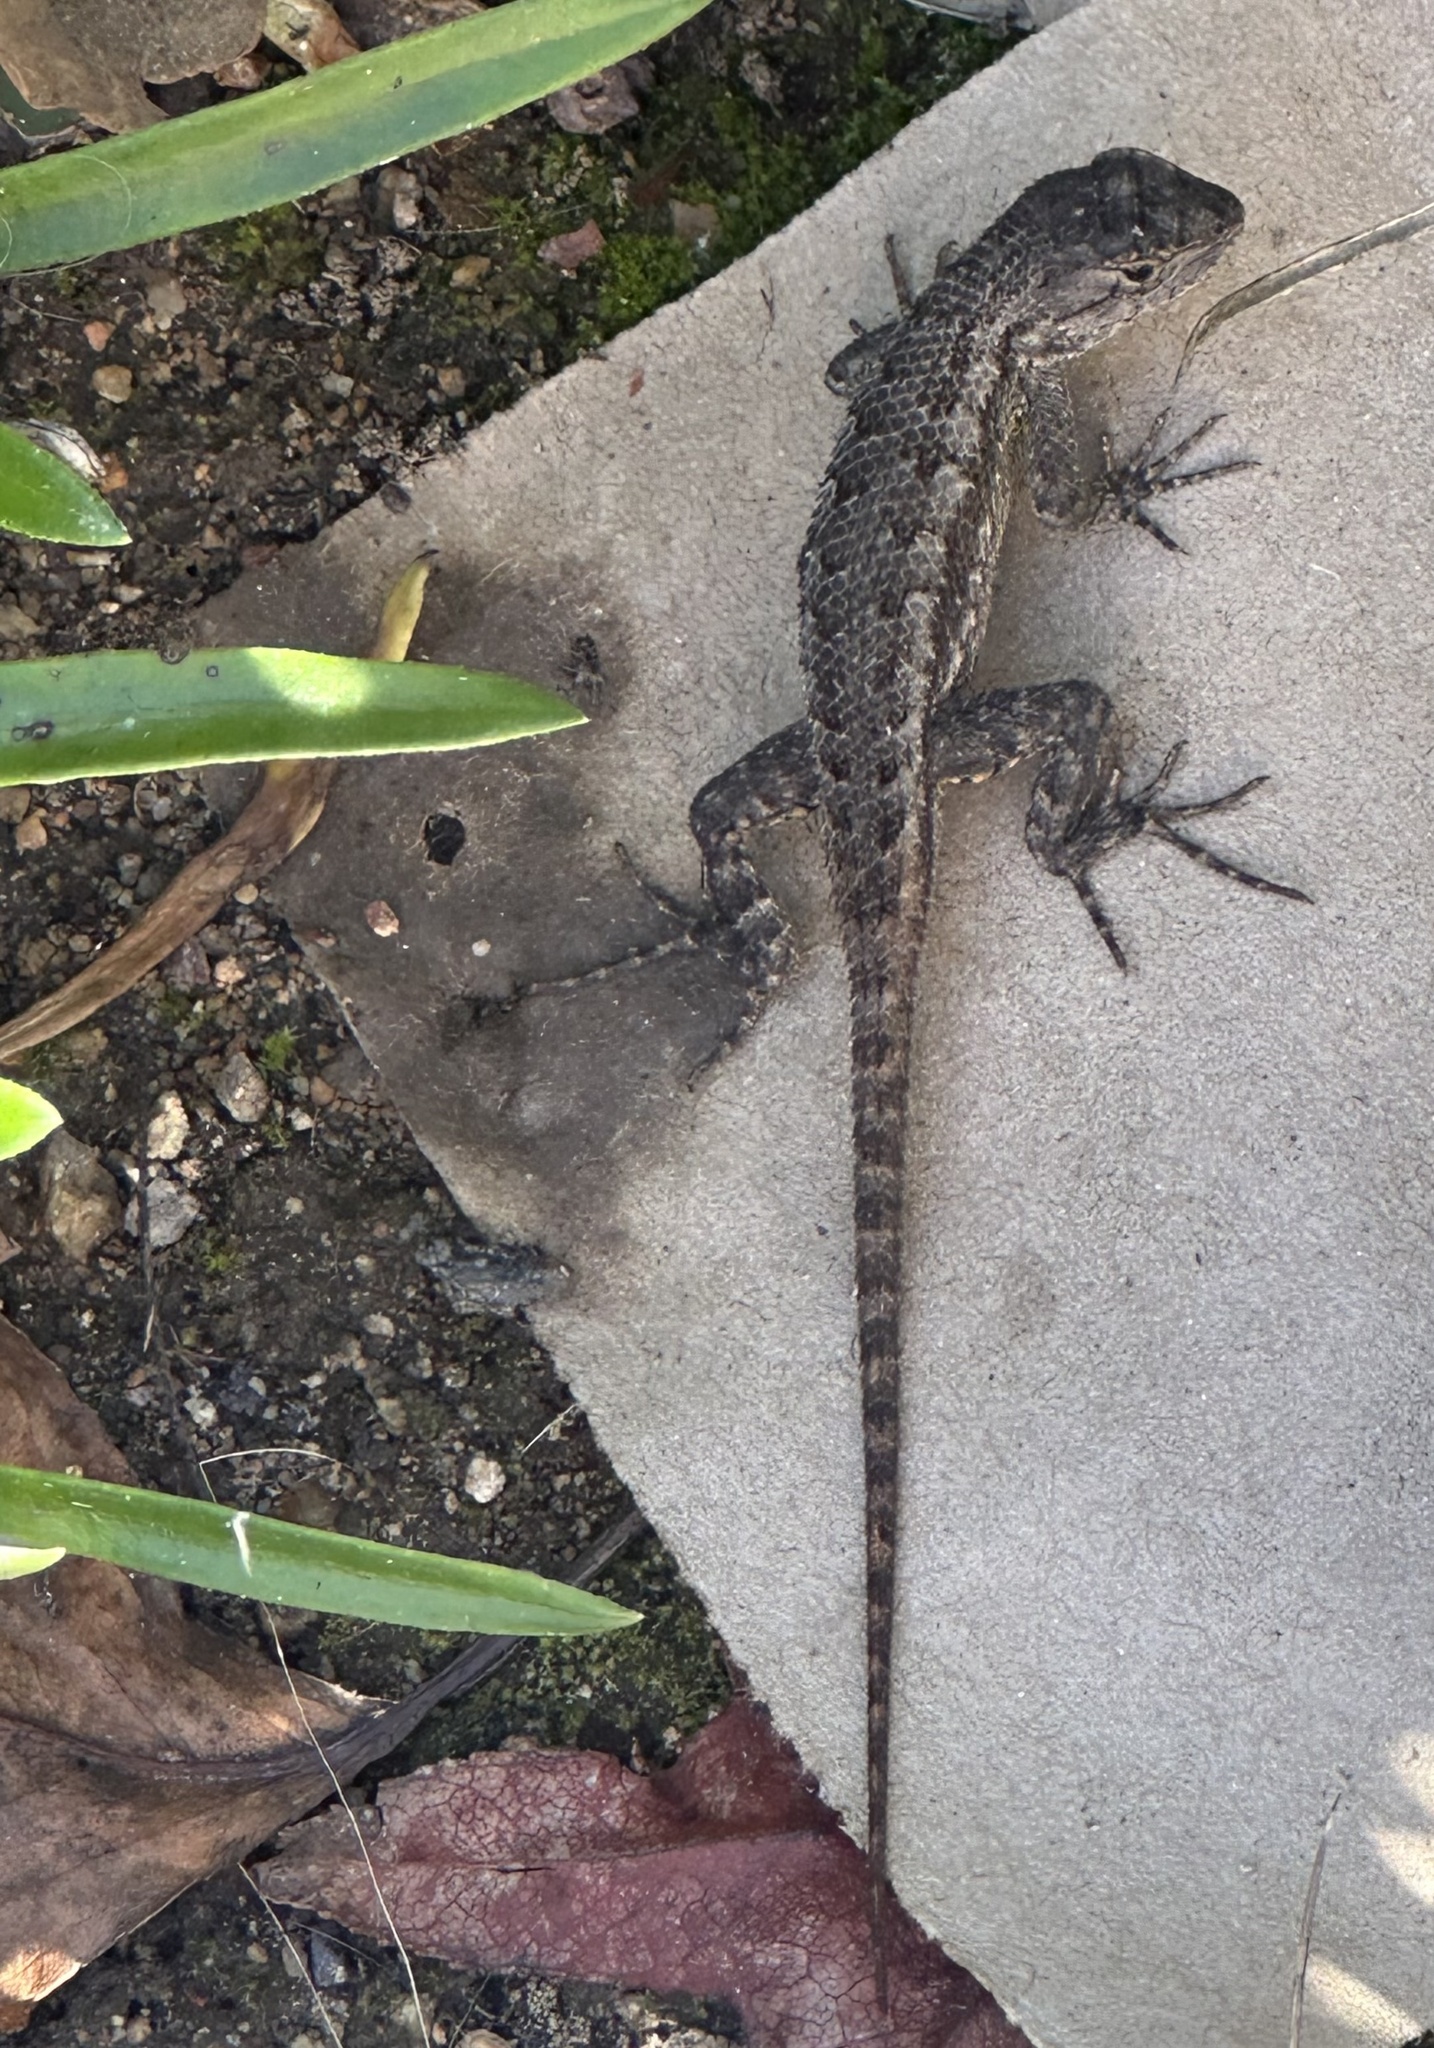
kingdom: Animalia
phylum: Chordata
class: Squamata
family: Phrynosomatidae
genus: Sceloporus
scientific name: Sceloporus occidentalis
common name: Western fence lizard
